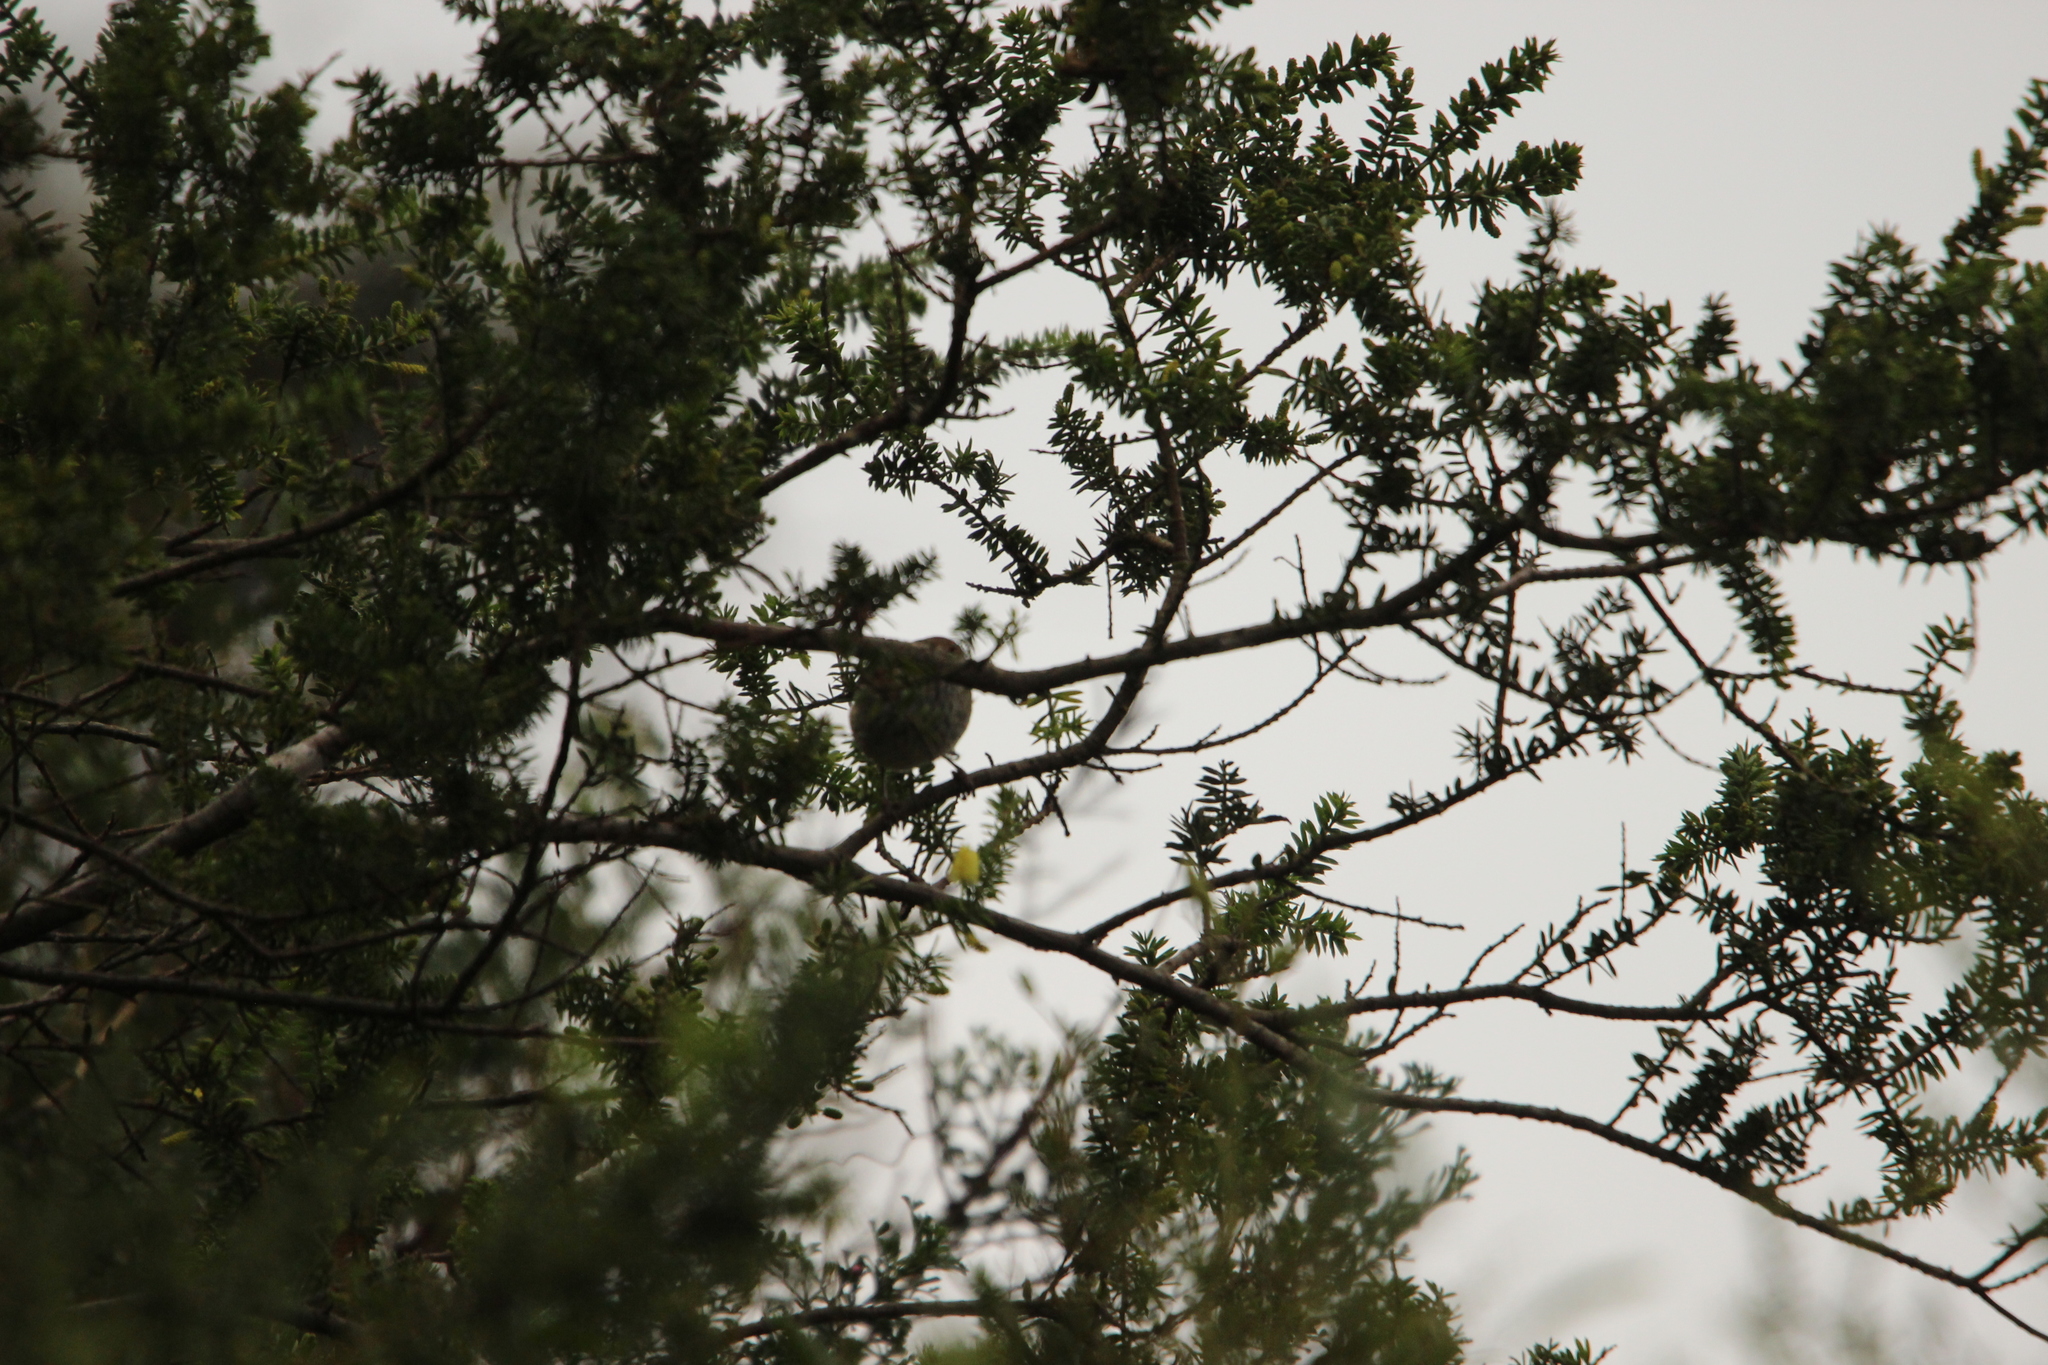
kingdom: Animalia
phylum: Chordata
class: Aves
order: Passeriformes
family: Acanthizidae
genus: Acanthiza
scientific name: Acanthiza pusilla
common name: Brown thornbill
